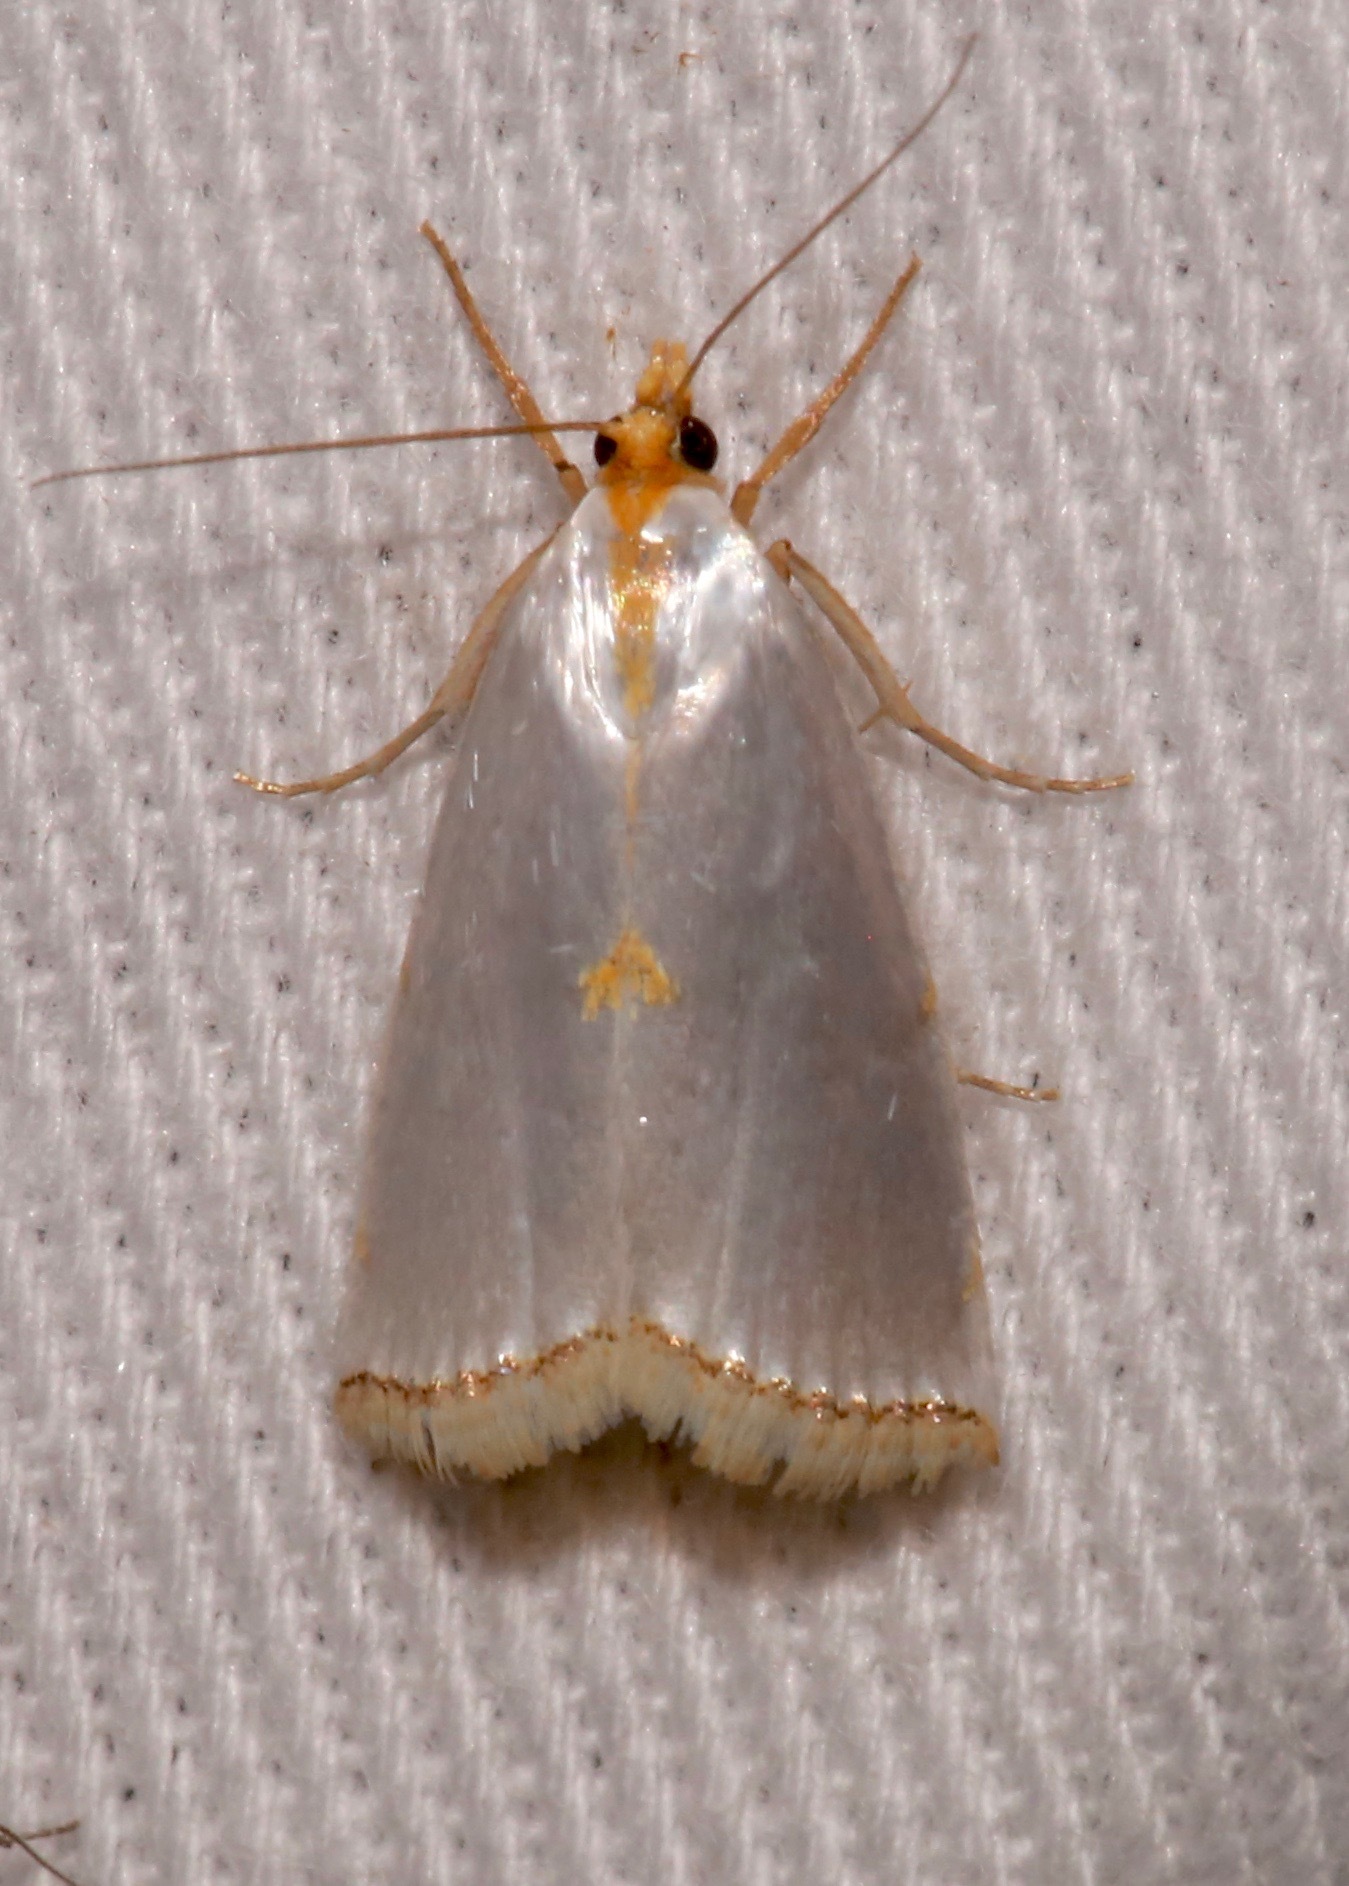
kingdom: Animalia
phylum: Arthropoda
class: Insecta
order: Lepidoptera
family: Crambidae
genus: Argyria
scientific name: Argyria nivalis
